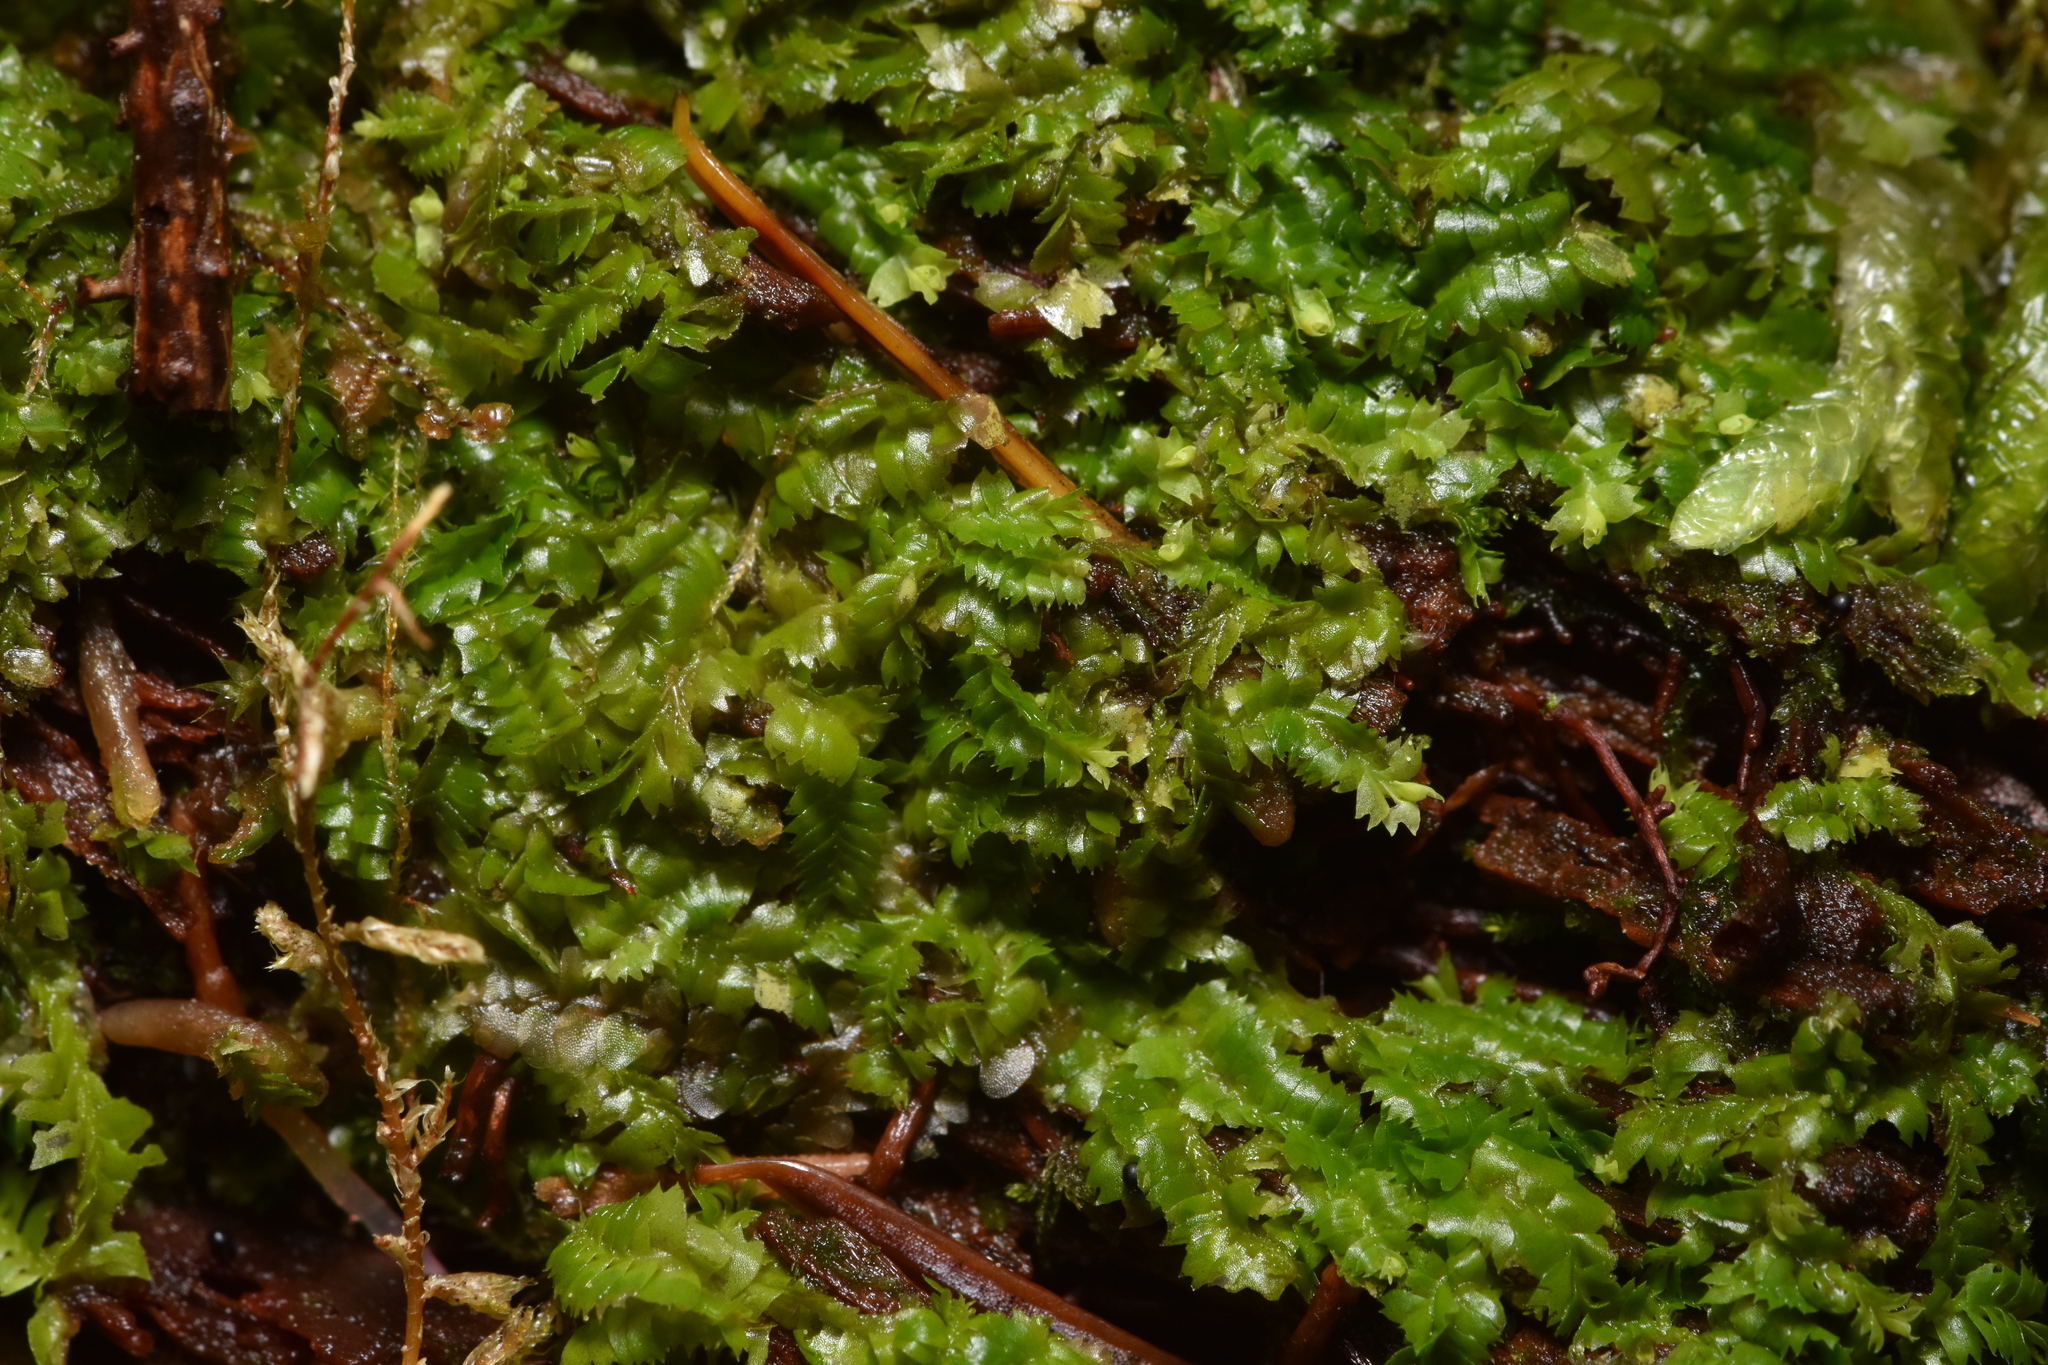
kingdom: Plantae
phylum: Marchantiophyta
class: Jungermanniopsida
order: Jungermanniales
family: Lophocoleaceae
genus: Lophocolea
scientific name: Lophocolea bidentata
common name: Bifid crestwort
